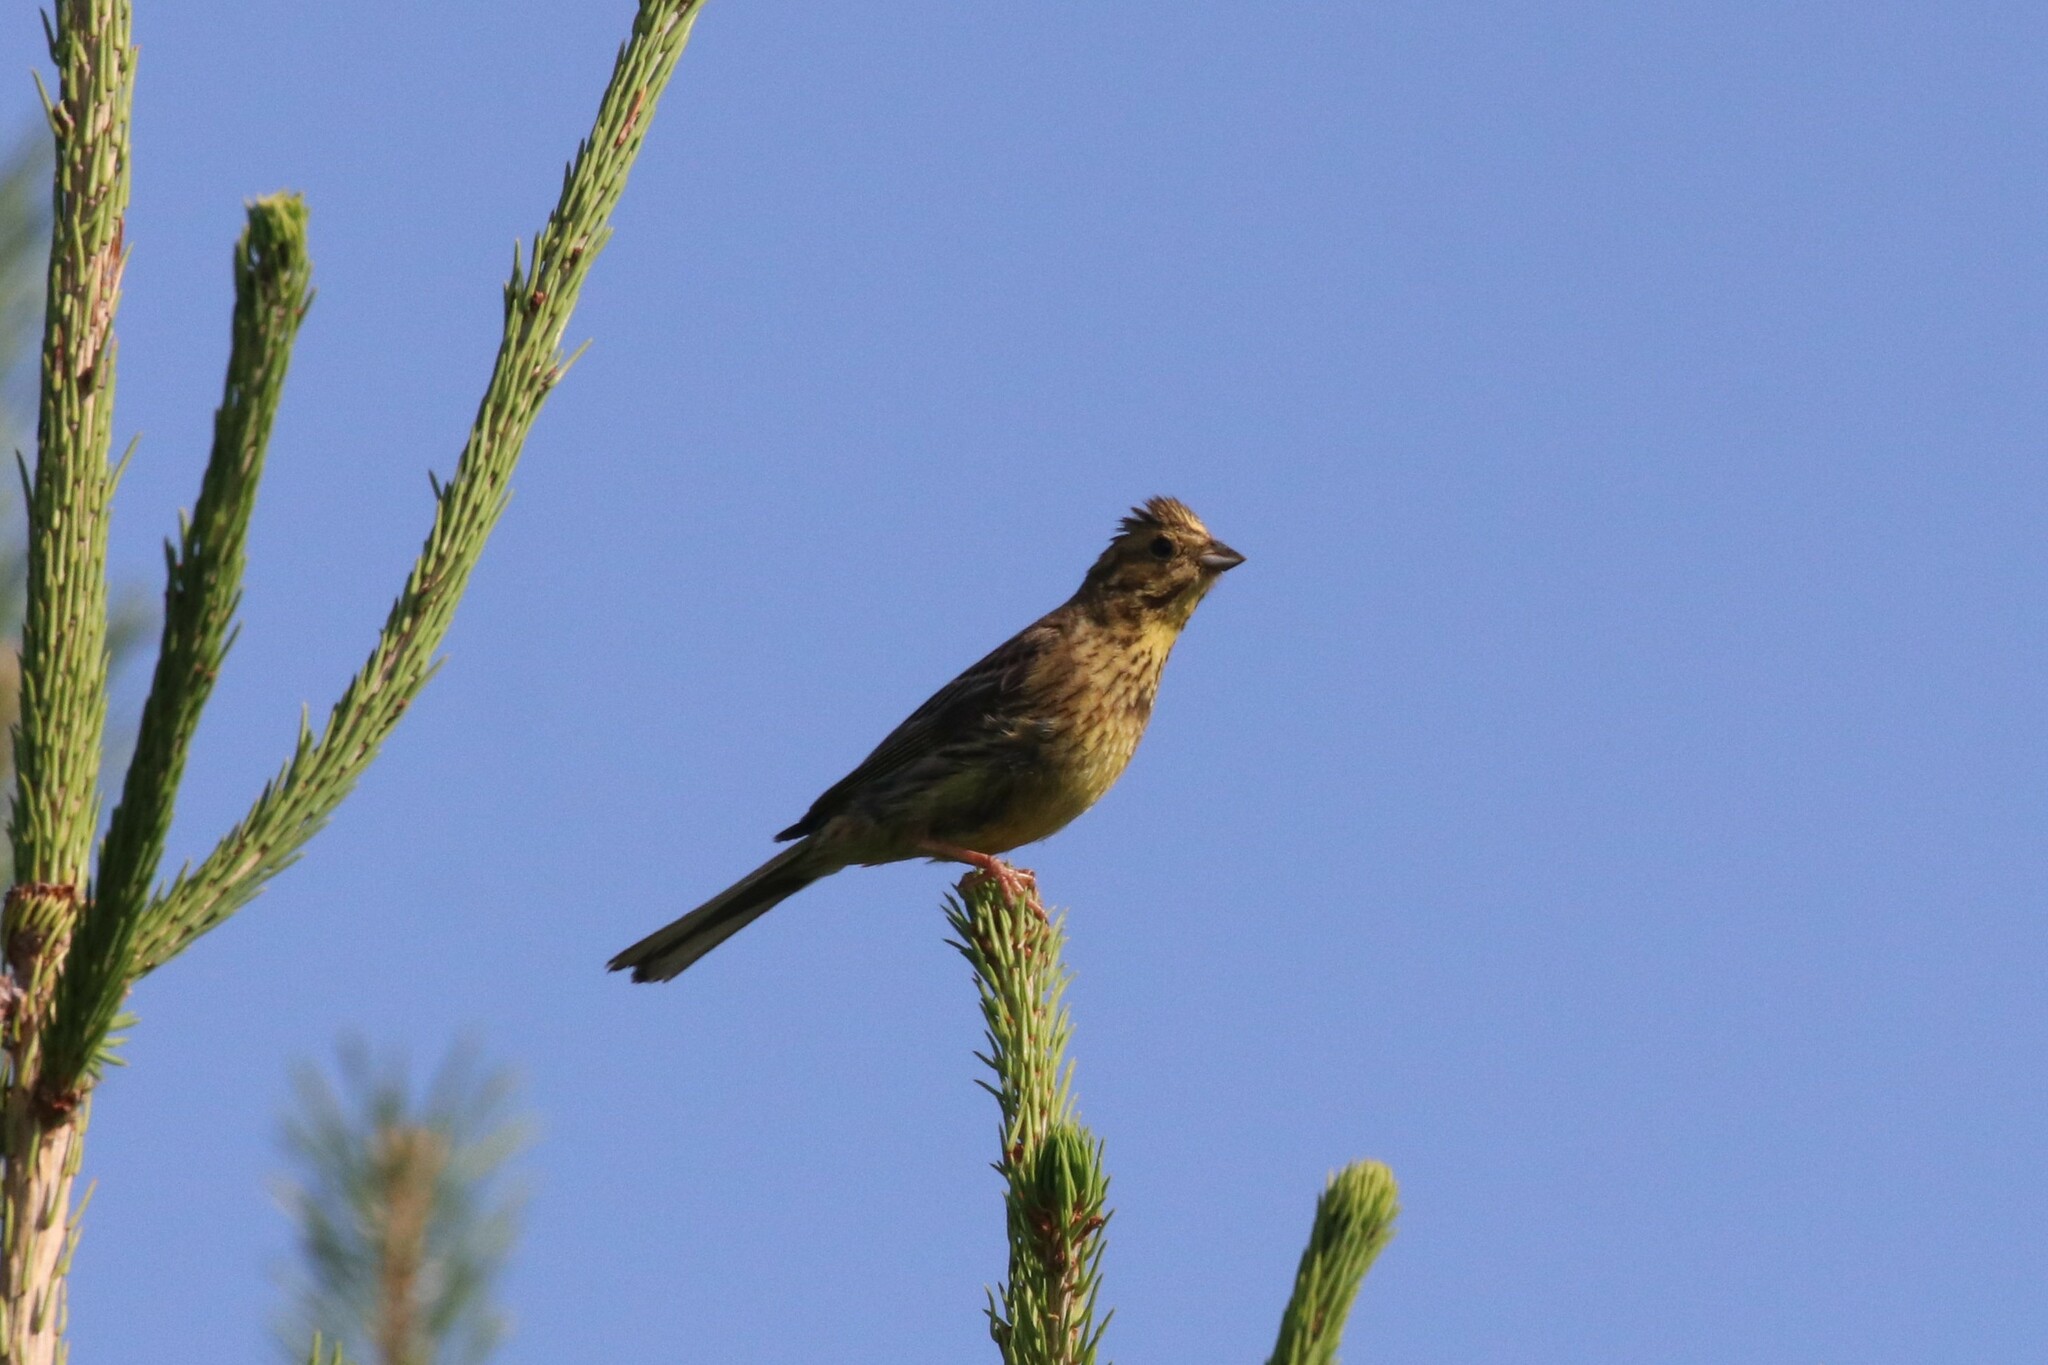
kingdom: Animalia
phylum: Chordata
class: Aves
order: Passeriformes
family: Emberizidae
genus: Emberiza
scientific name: Emberiza citrinella
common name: Yellowhammer
